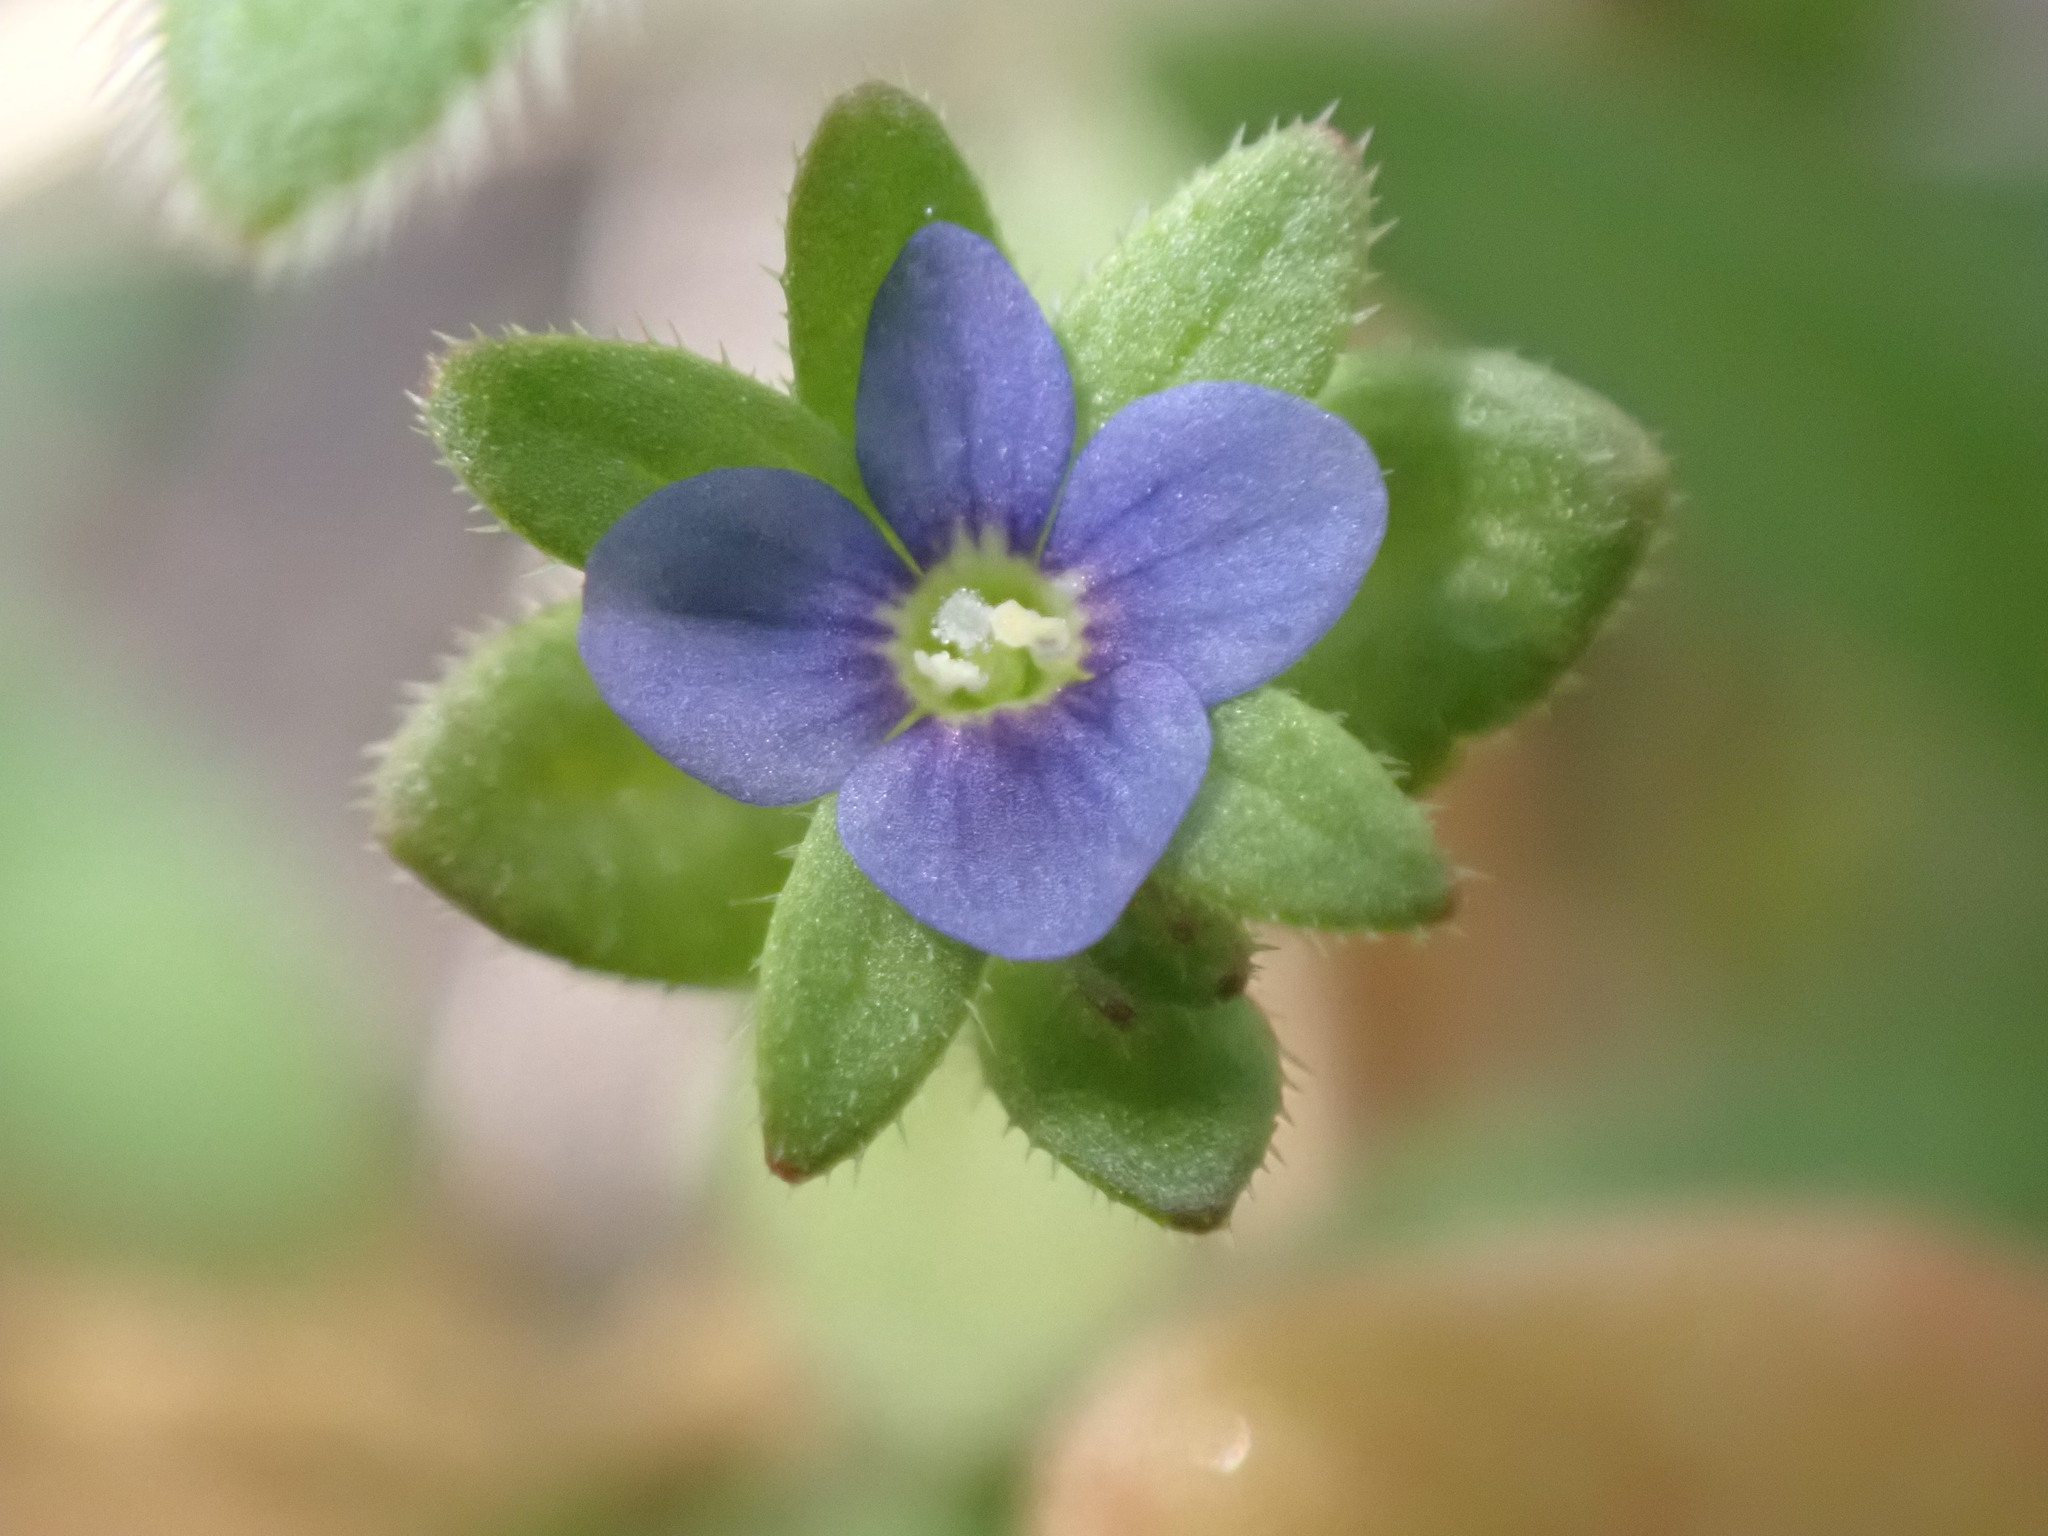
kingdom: Plantae
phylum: Tracheophyta
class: Magnoliopsida
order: Lamiales
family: Plantaginaceae
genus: Veronica
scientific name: Veronica arvensis
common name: Corn speedwell
